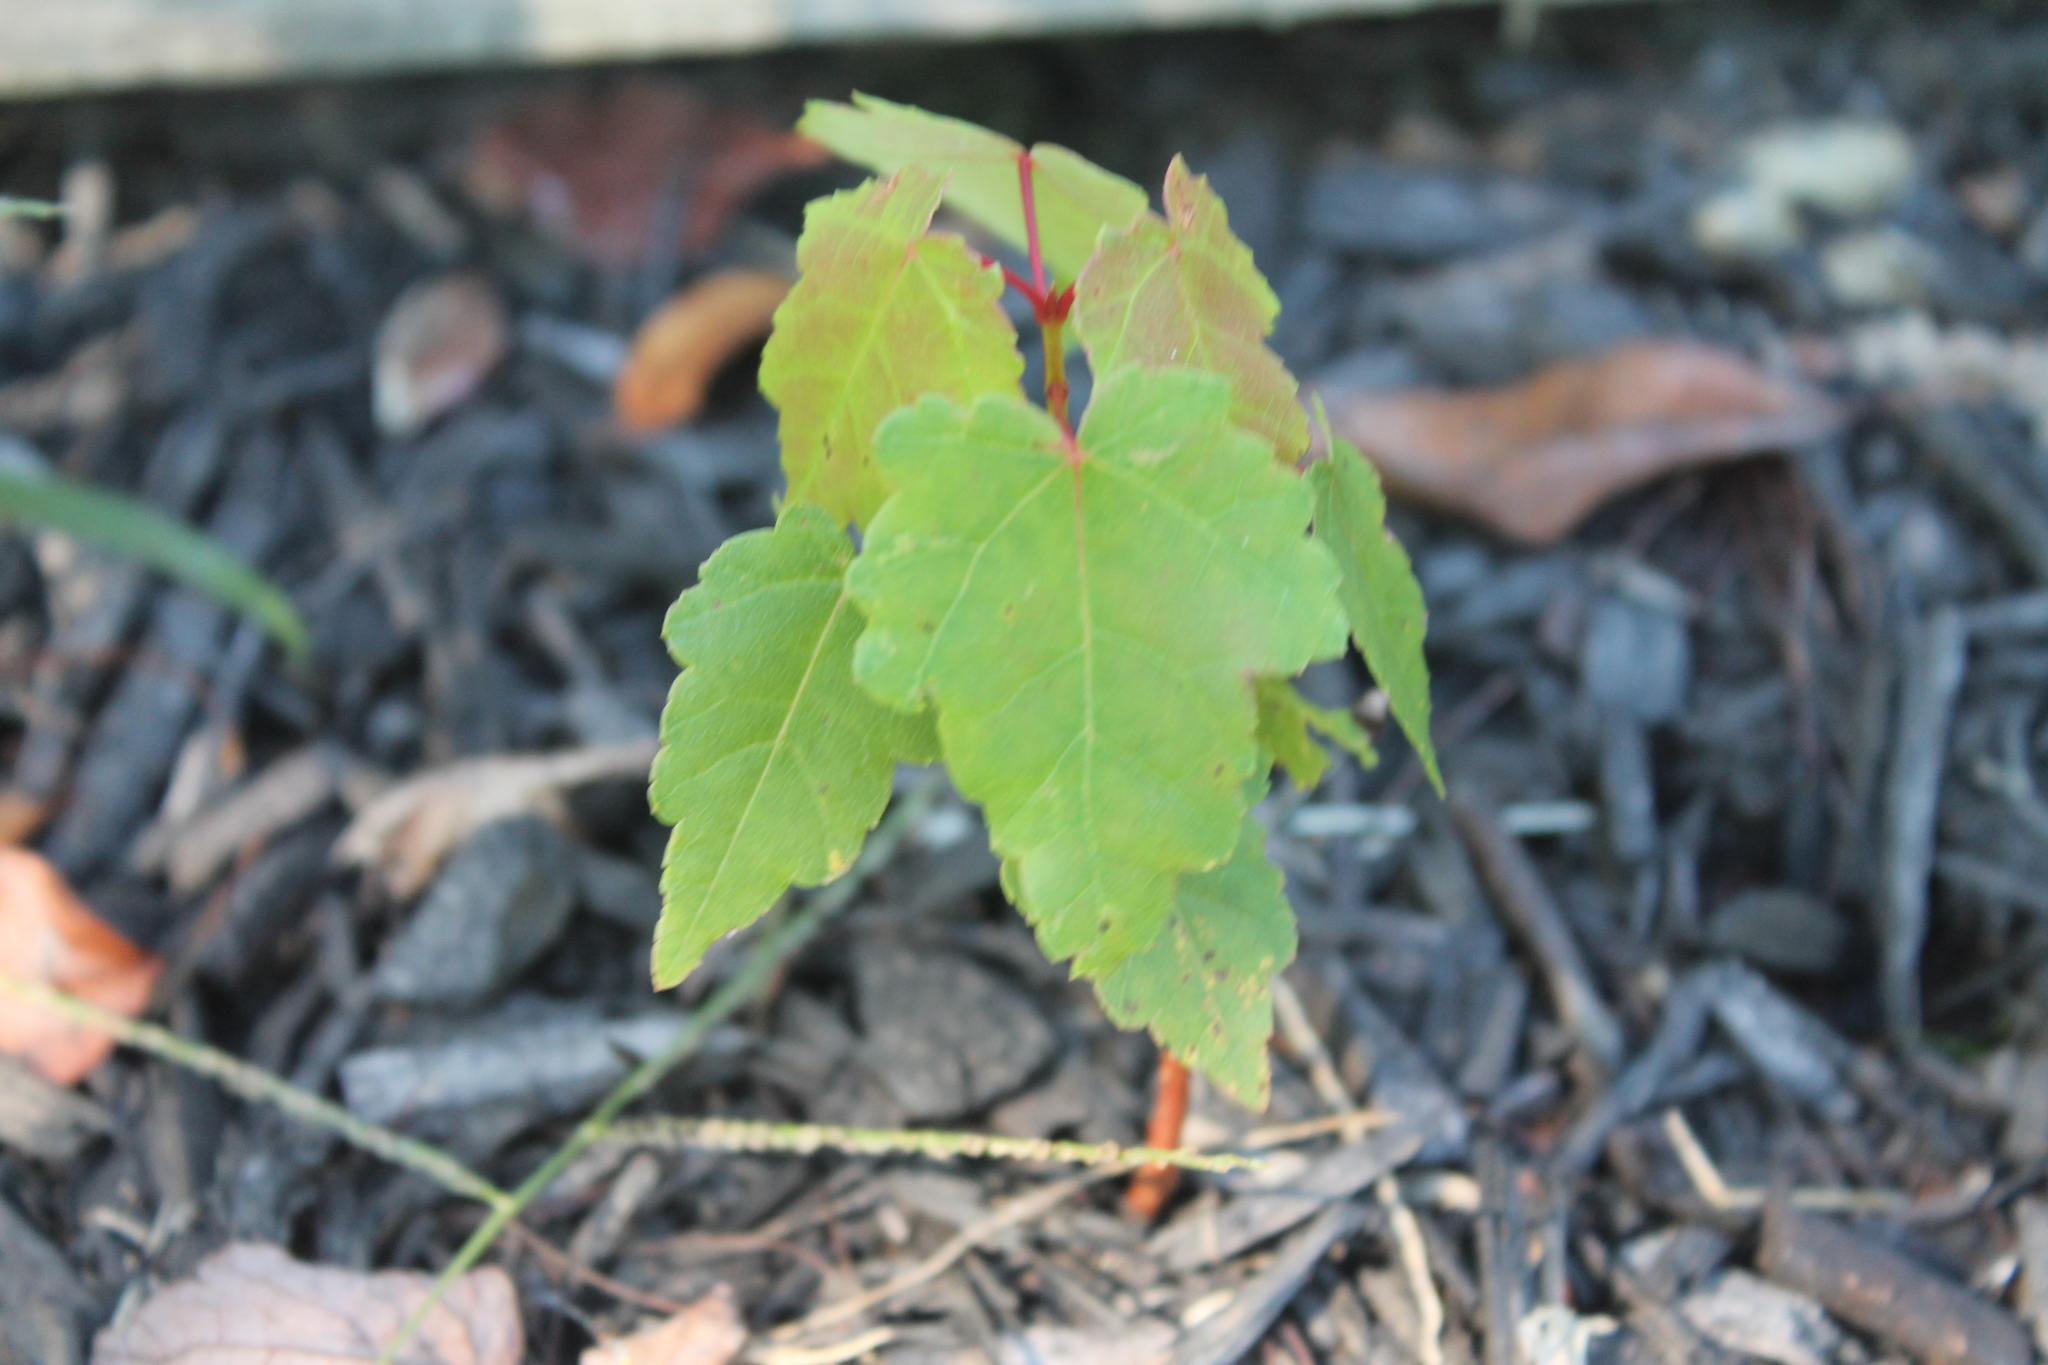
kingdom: Plantae
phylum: Tracheophyta
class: Magnoliopsida
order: Sapindales
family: Sapindaceae
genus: Acer
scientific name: Acer rubrum
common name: Red maple
